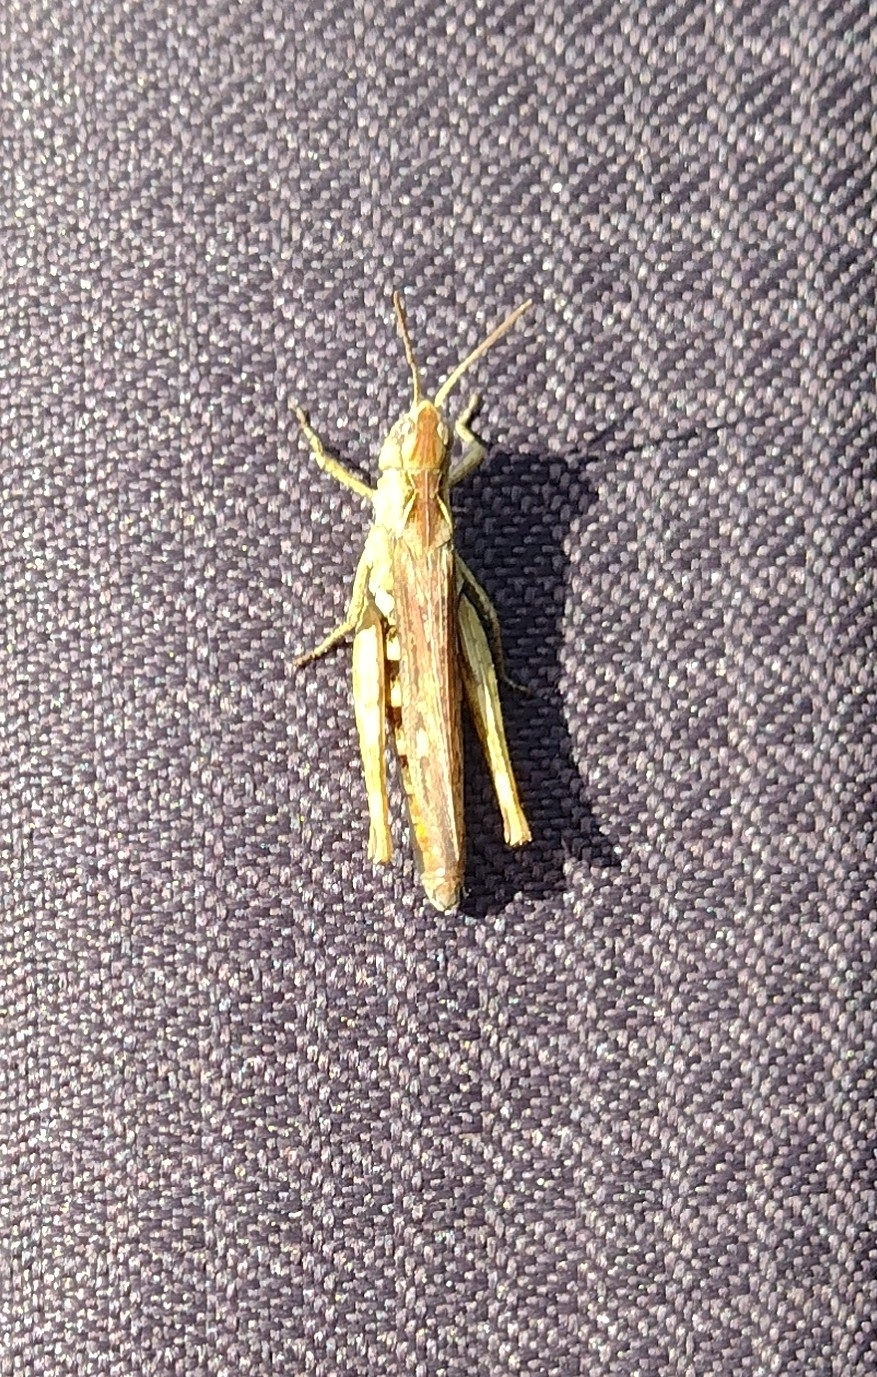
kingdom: Animalia
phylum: Arthropoda
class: Insecta
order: Orthoptera
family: Acrididae
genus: Chorthippus
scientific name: Chorthippus brunneus
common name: Field grasshopper
